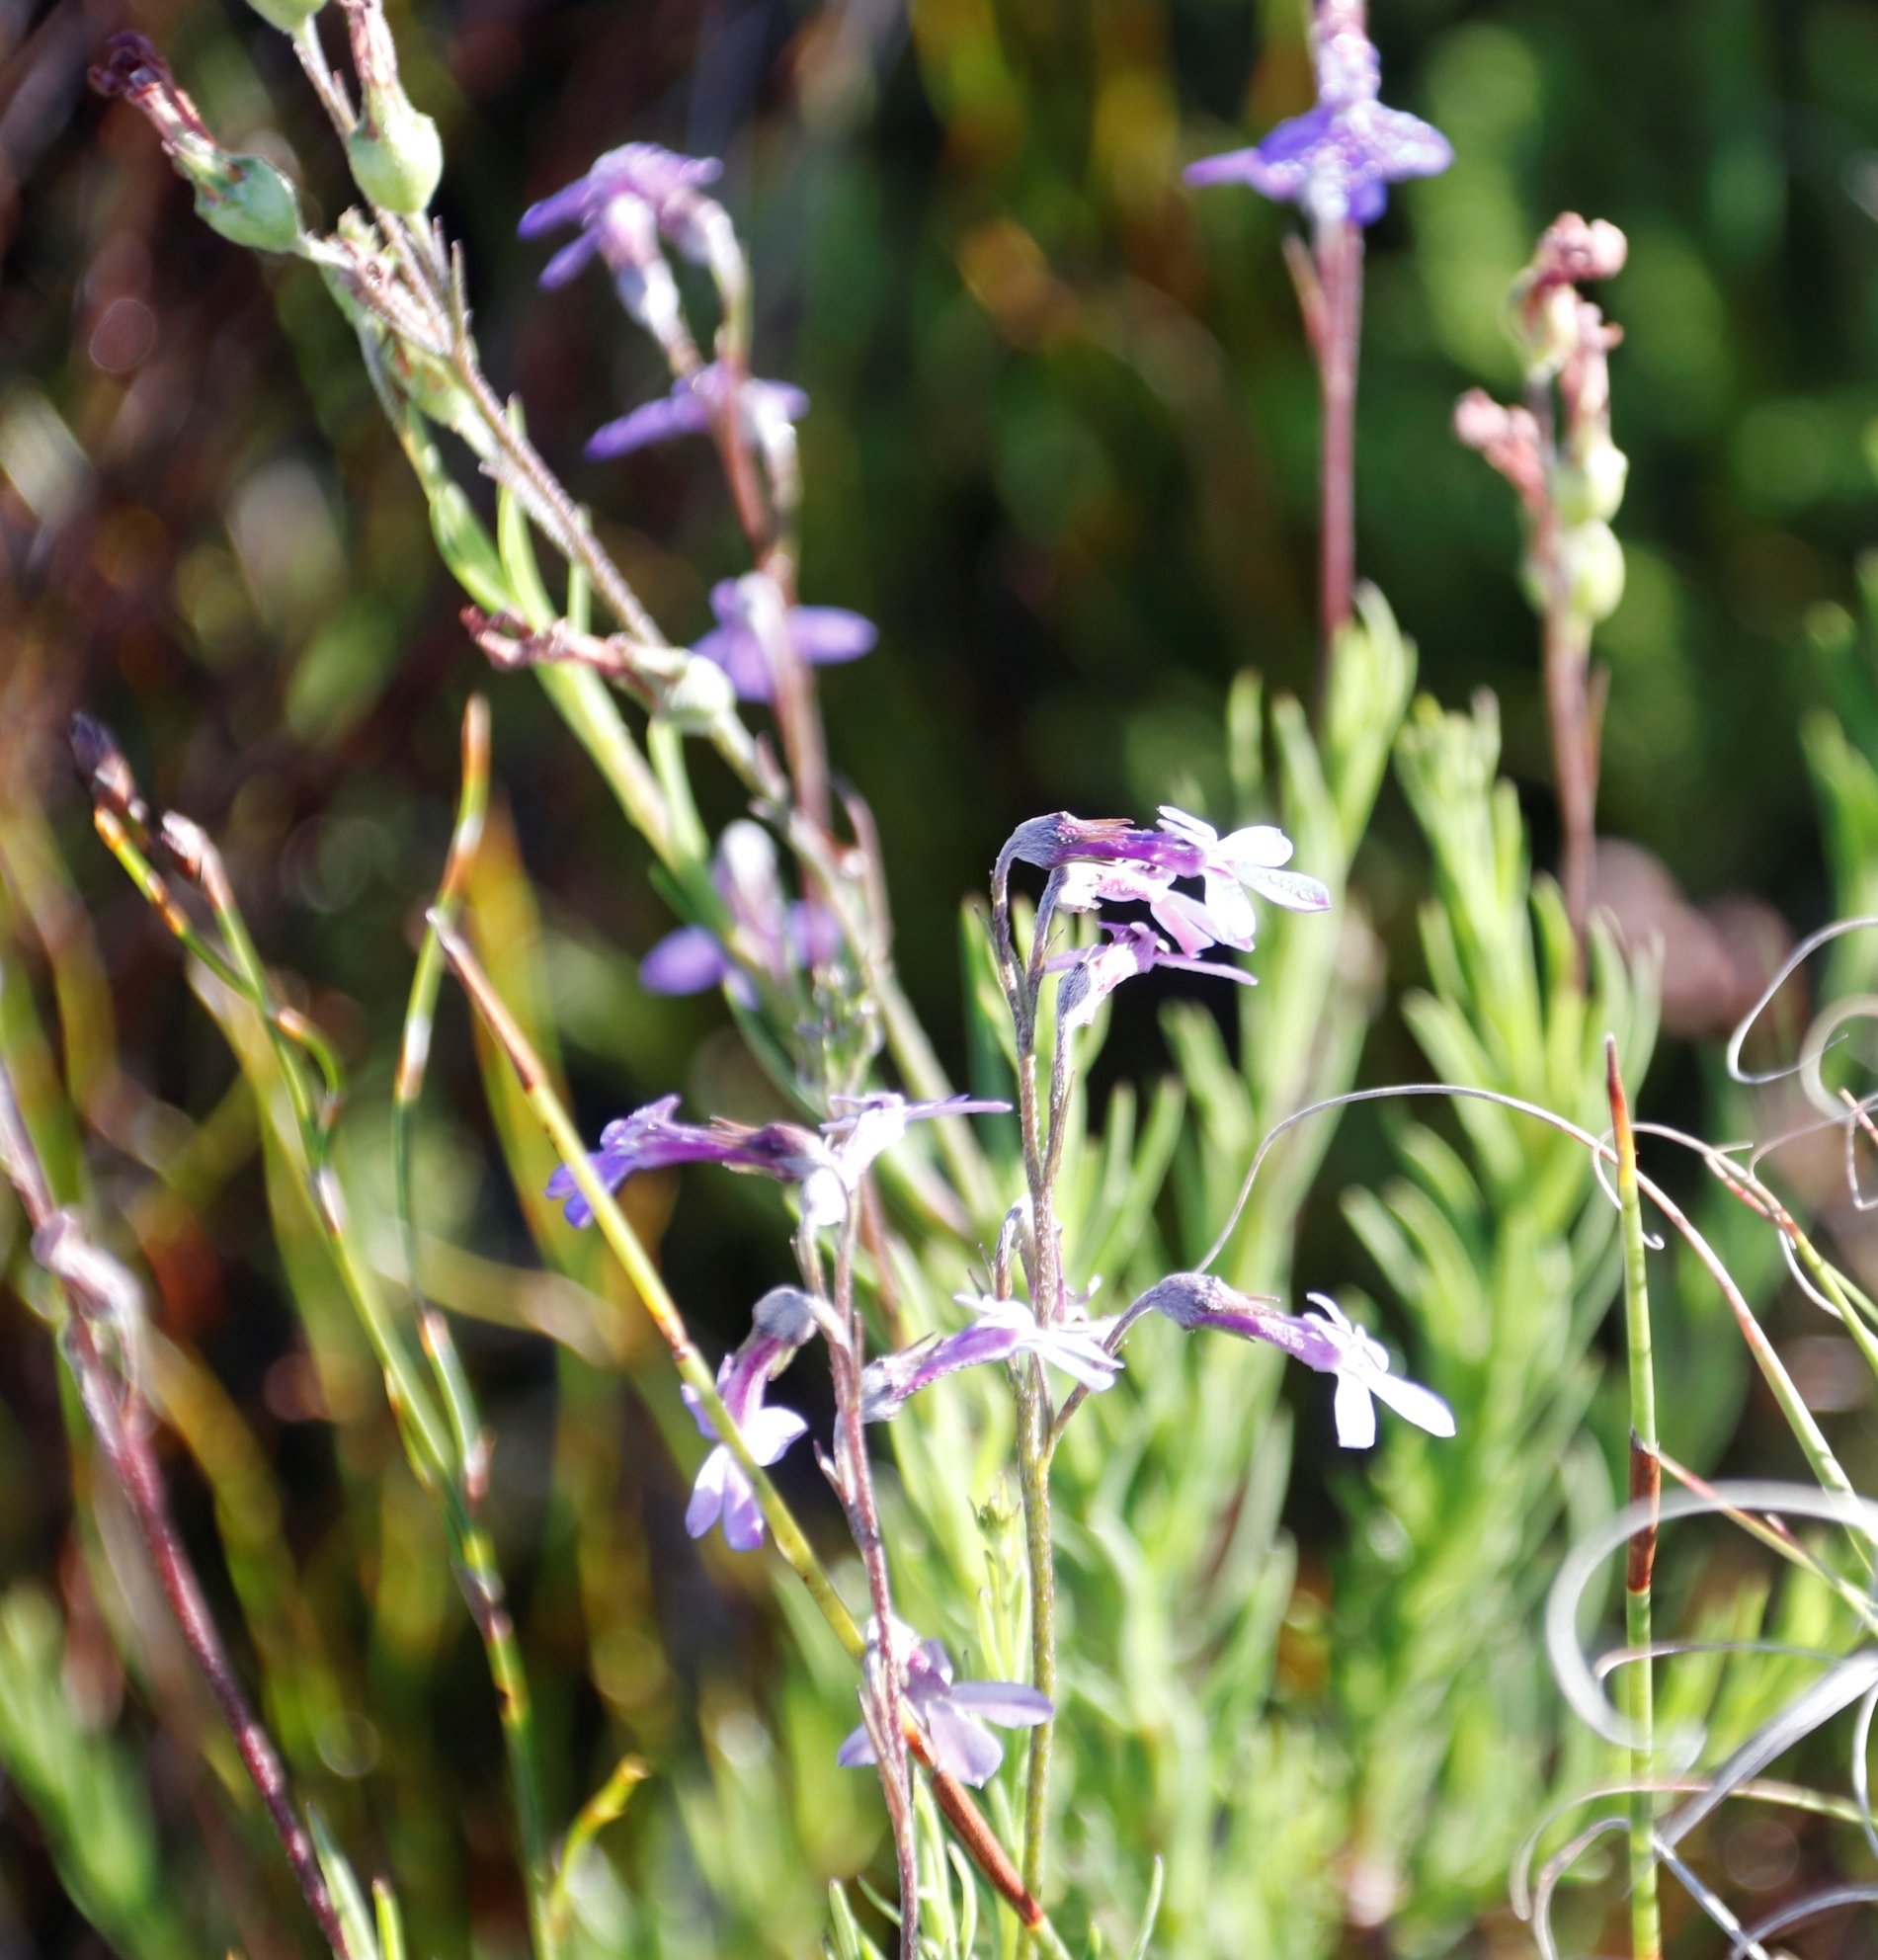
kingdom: Plantae
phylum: Tracheophyta
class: Magnoliopsida
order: Asterales
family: Campanulaceae
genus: Lobelia
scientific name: Lobelia pinifolia
